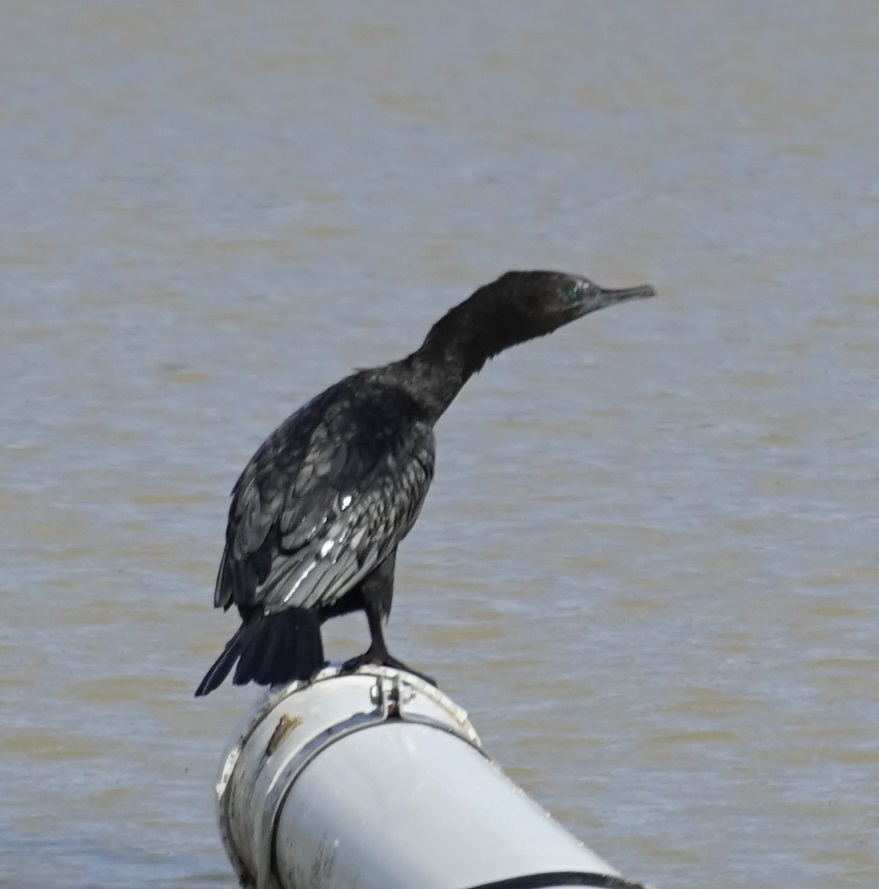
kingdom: Animalia
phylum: Chordata
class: Aves
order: Suliformes
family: Phalacrocoracidae
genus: Phalacrocorax
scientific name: Phalacrocorax sulcirostris
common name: Little black cormorant
